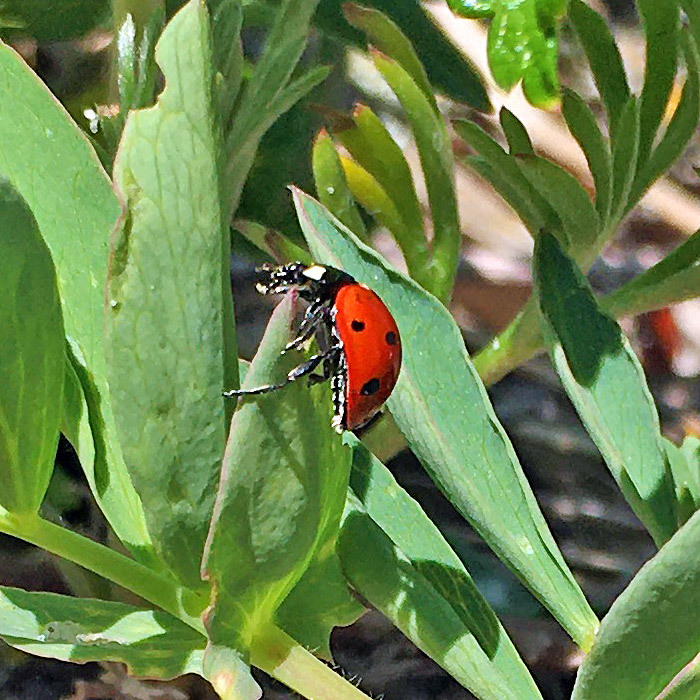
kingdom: Animalia
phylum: Arthropoda
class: Insecta
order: Coleoptera
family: Coccinellidae
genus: Coccinella
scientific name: Coccinella septempunctata
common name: Sevenspotted lady beetle
